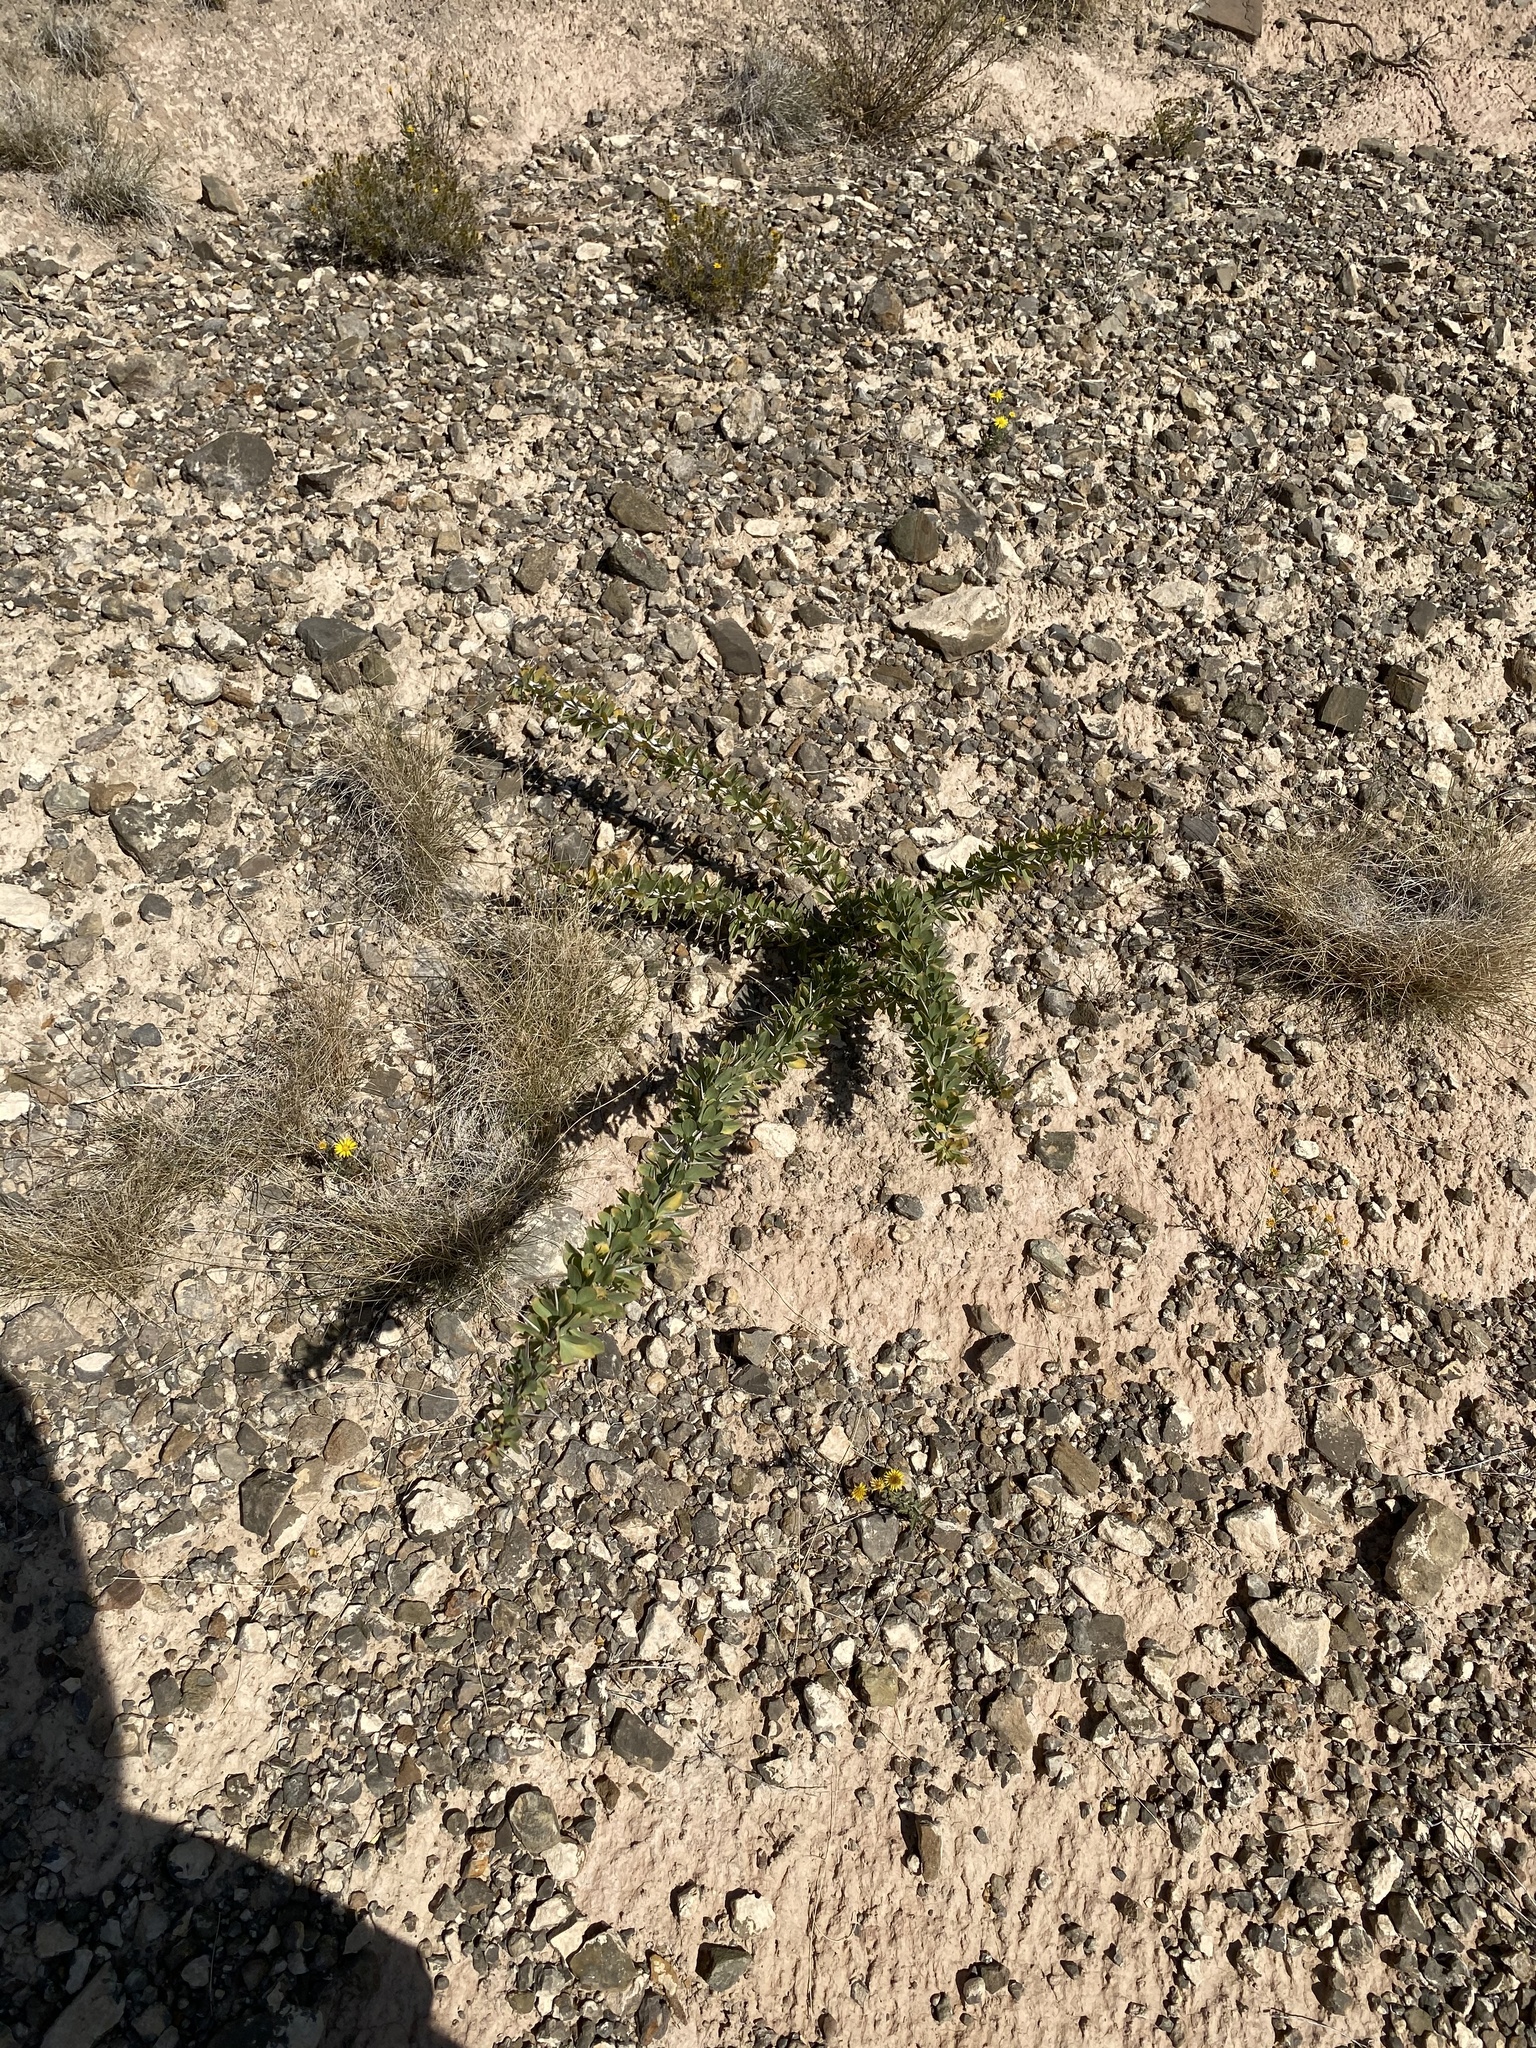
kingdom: Plantae
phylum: Tracheophyta
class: Magnoliopsida
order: Ericales
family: Fouquieriaceae
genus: Fouquieria
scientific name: Fouquieria splendens
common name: Vine-cactus
